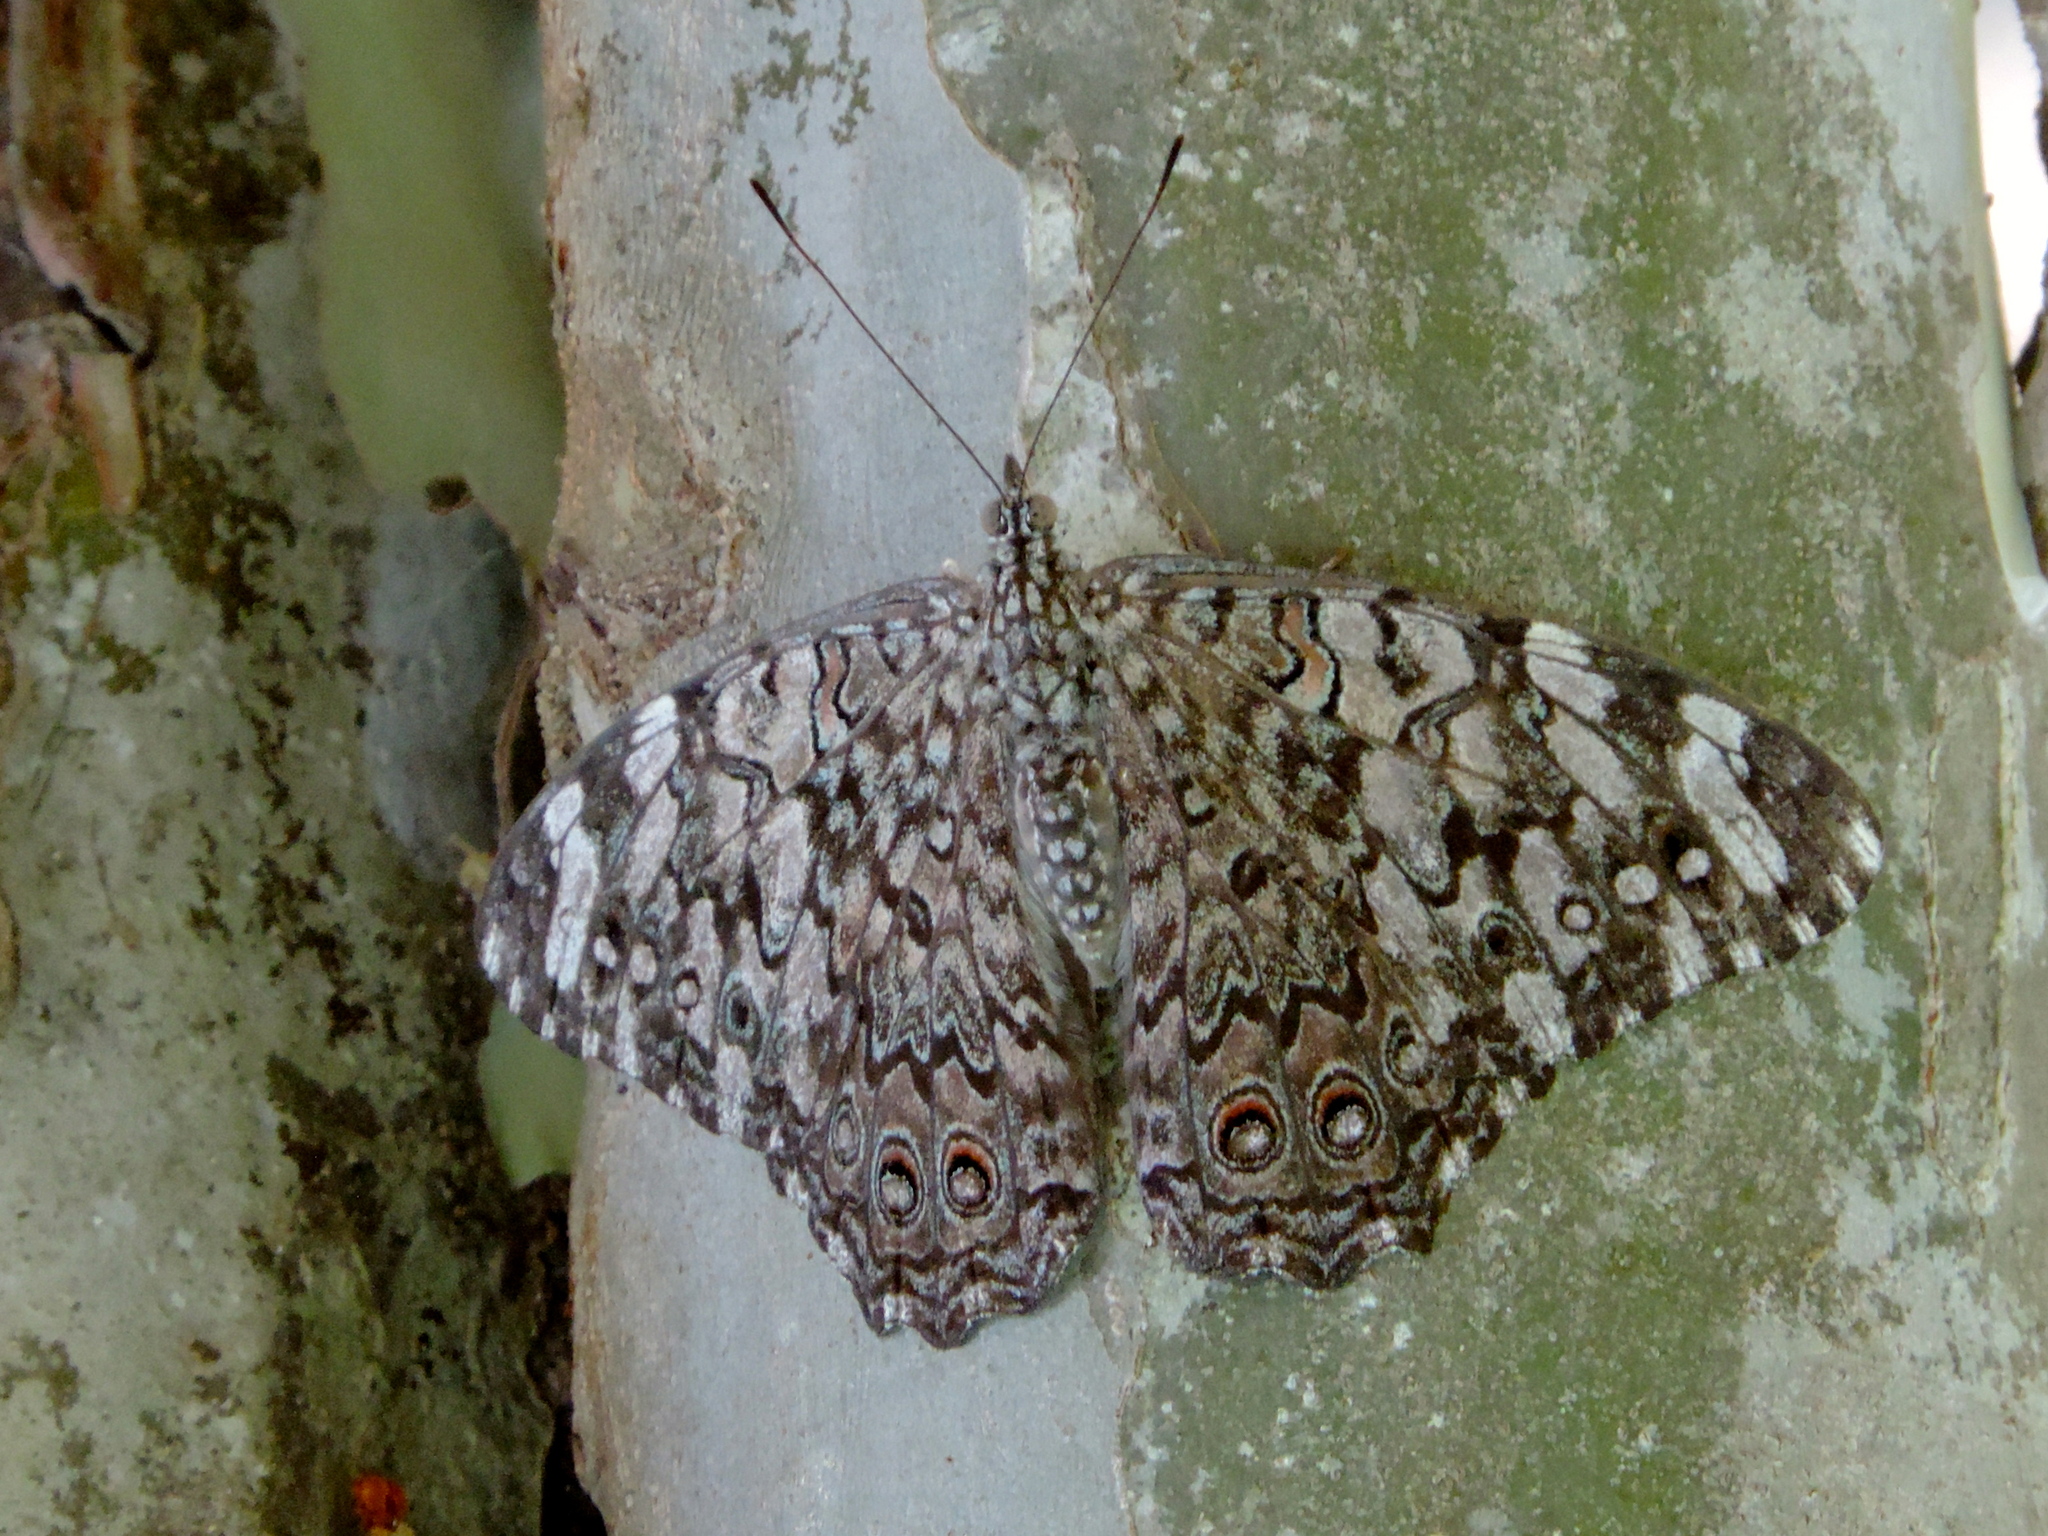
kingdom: Animalia
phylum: Arthropoda
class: Insecta
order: Lepidoptera
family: Nymphalidae
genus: Hamadryas
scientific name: Hamadryas februa
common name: Gray cracker
